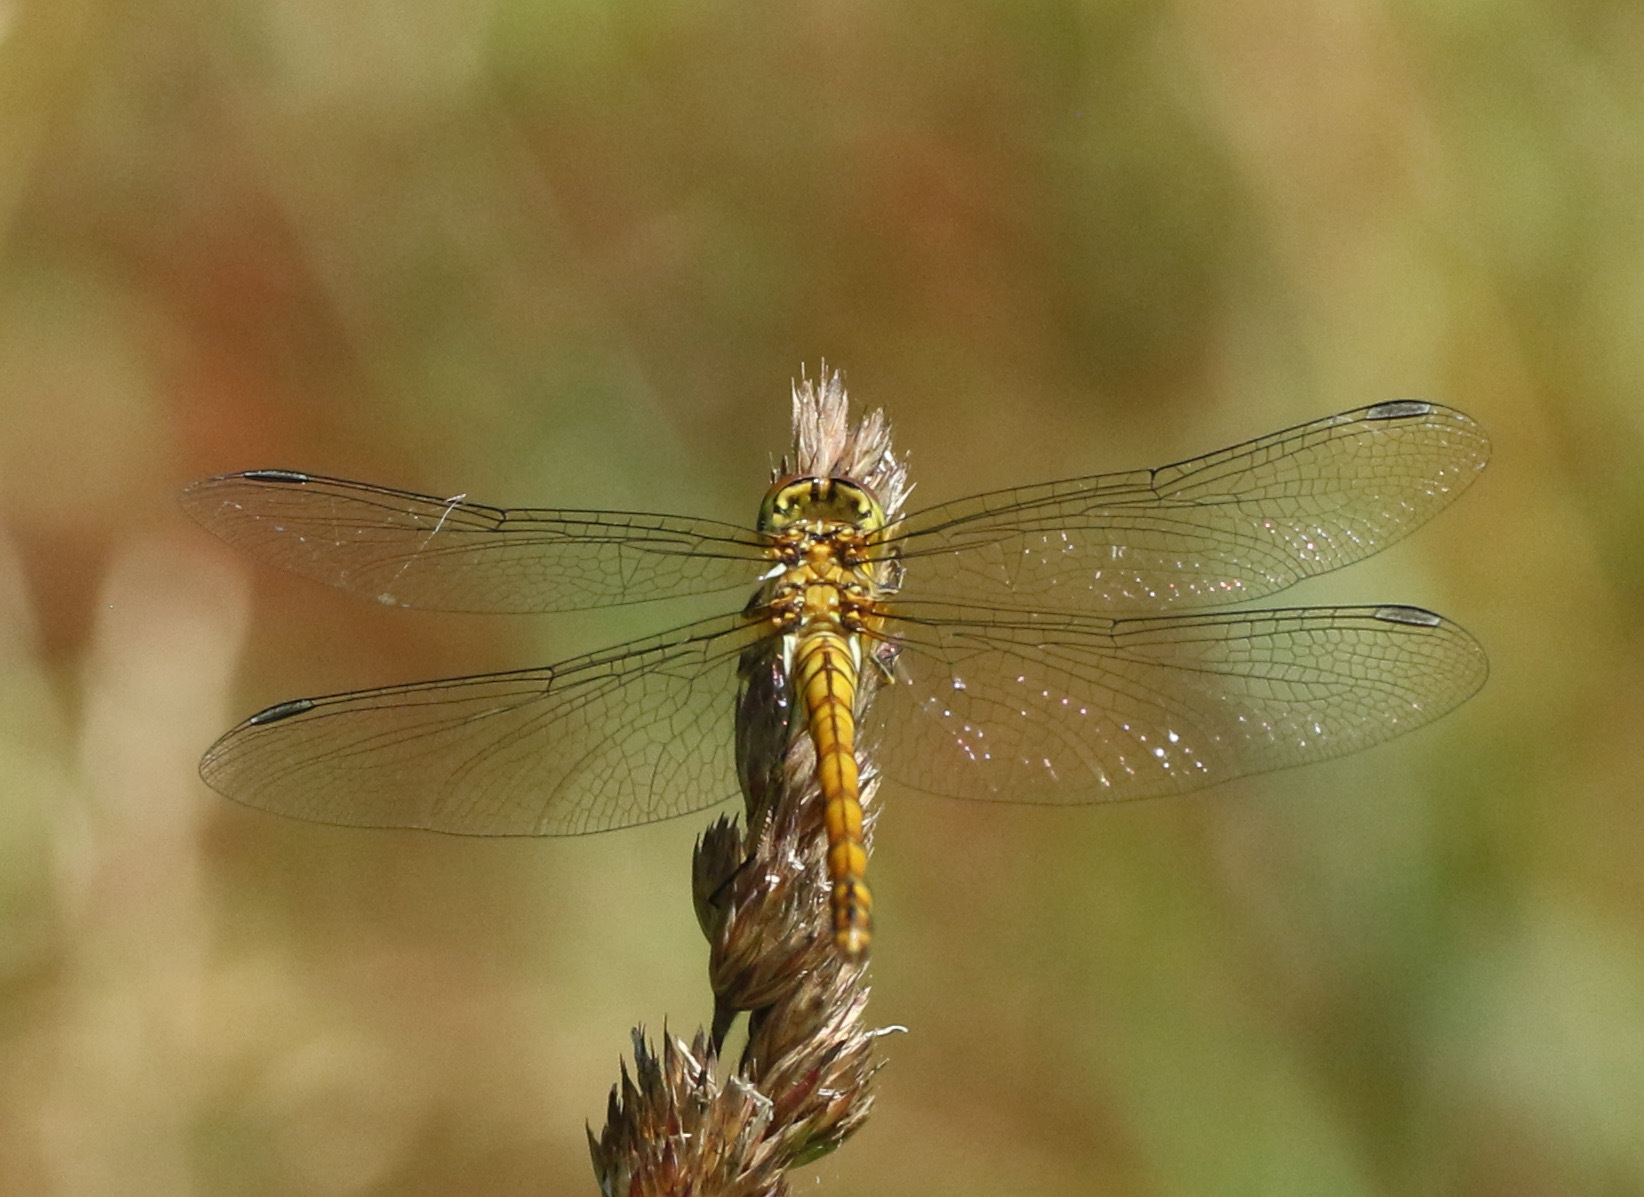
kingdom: Animalia
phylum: Arthropoda
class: Insecta
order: Odonata
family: Libellulidae
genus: Sympetrum
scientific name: Sympetrum striolatum
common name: Common darter
